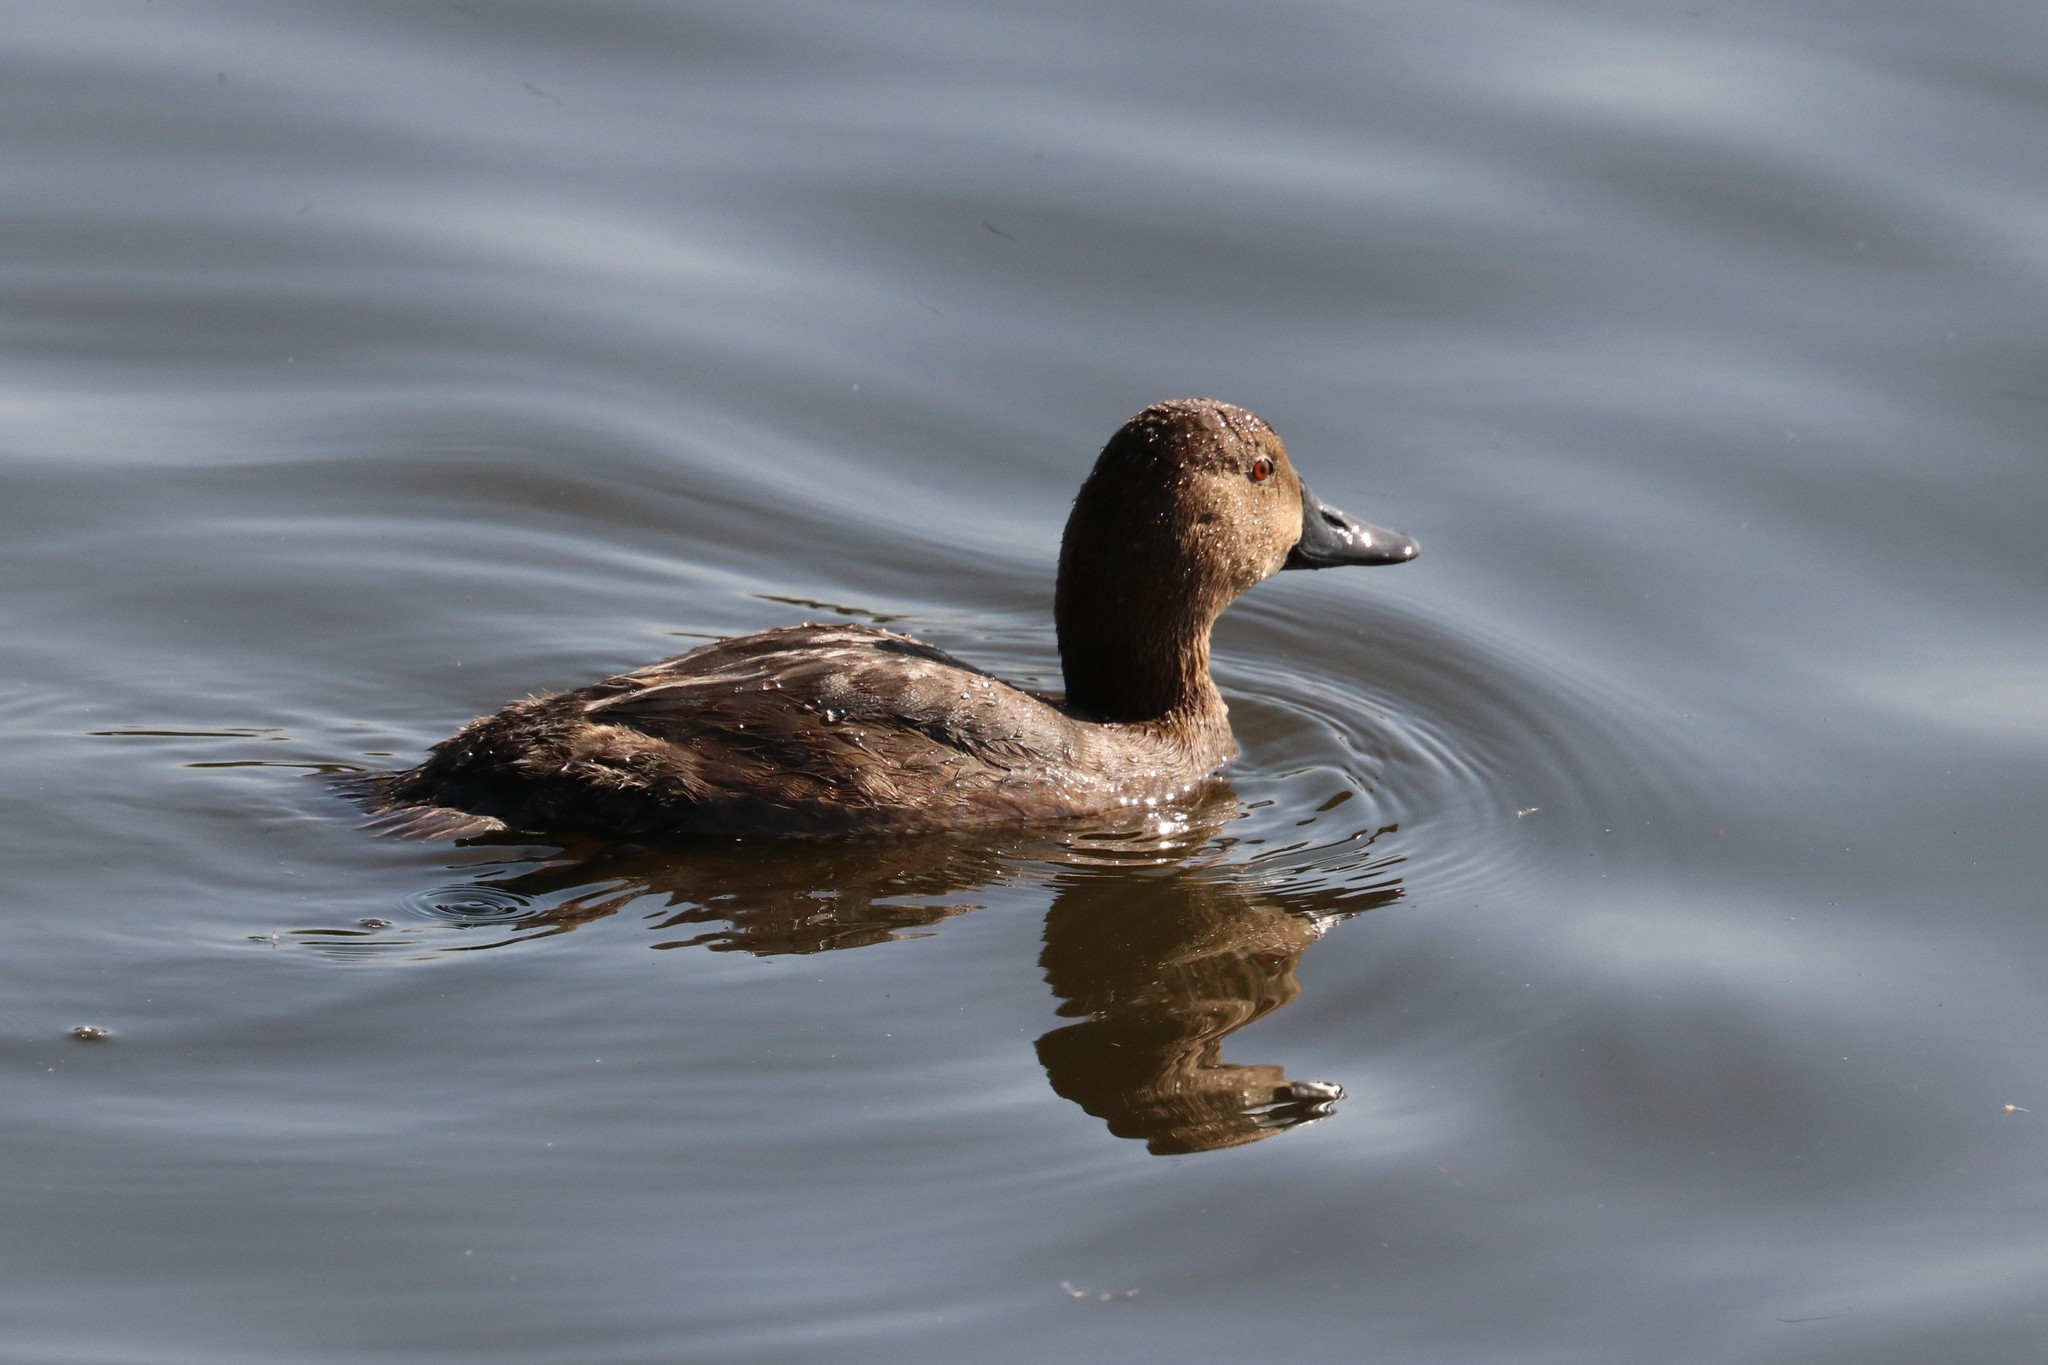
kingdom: Animalia
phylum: Chordata
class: Aves
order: Anseriformes
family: Anatidae
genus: Aythya
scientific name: Aythya ferina
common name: Common pochard
